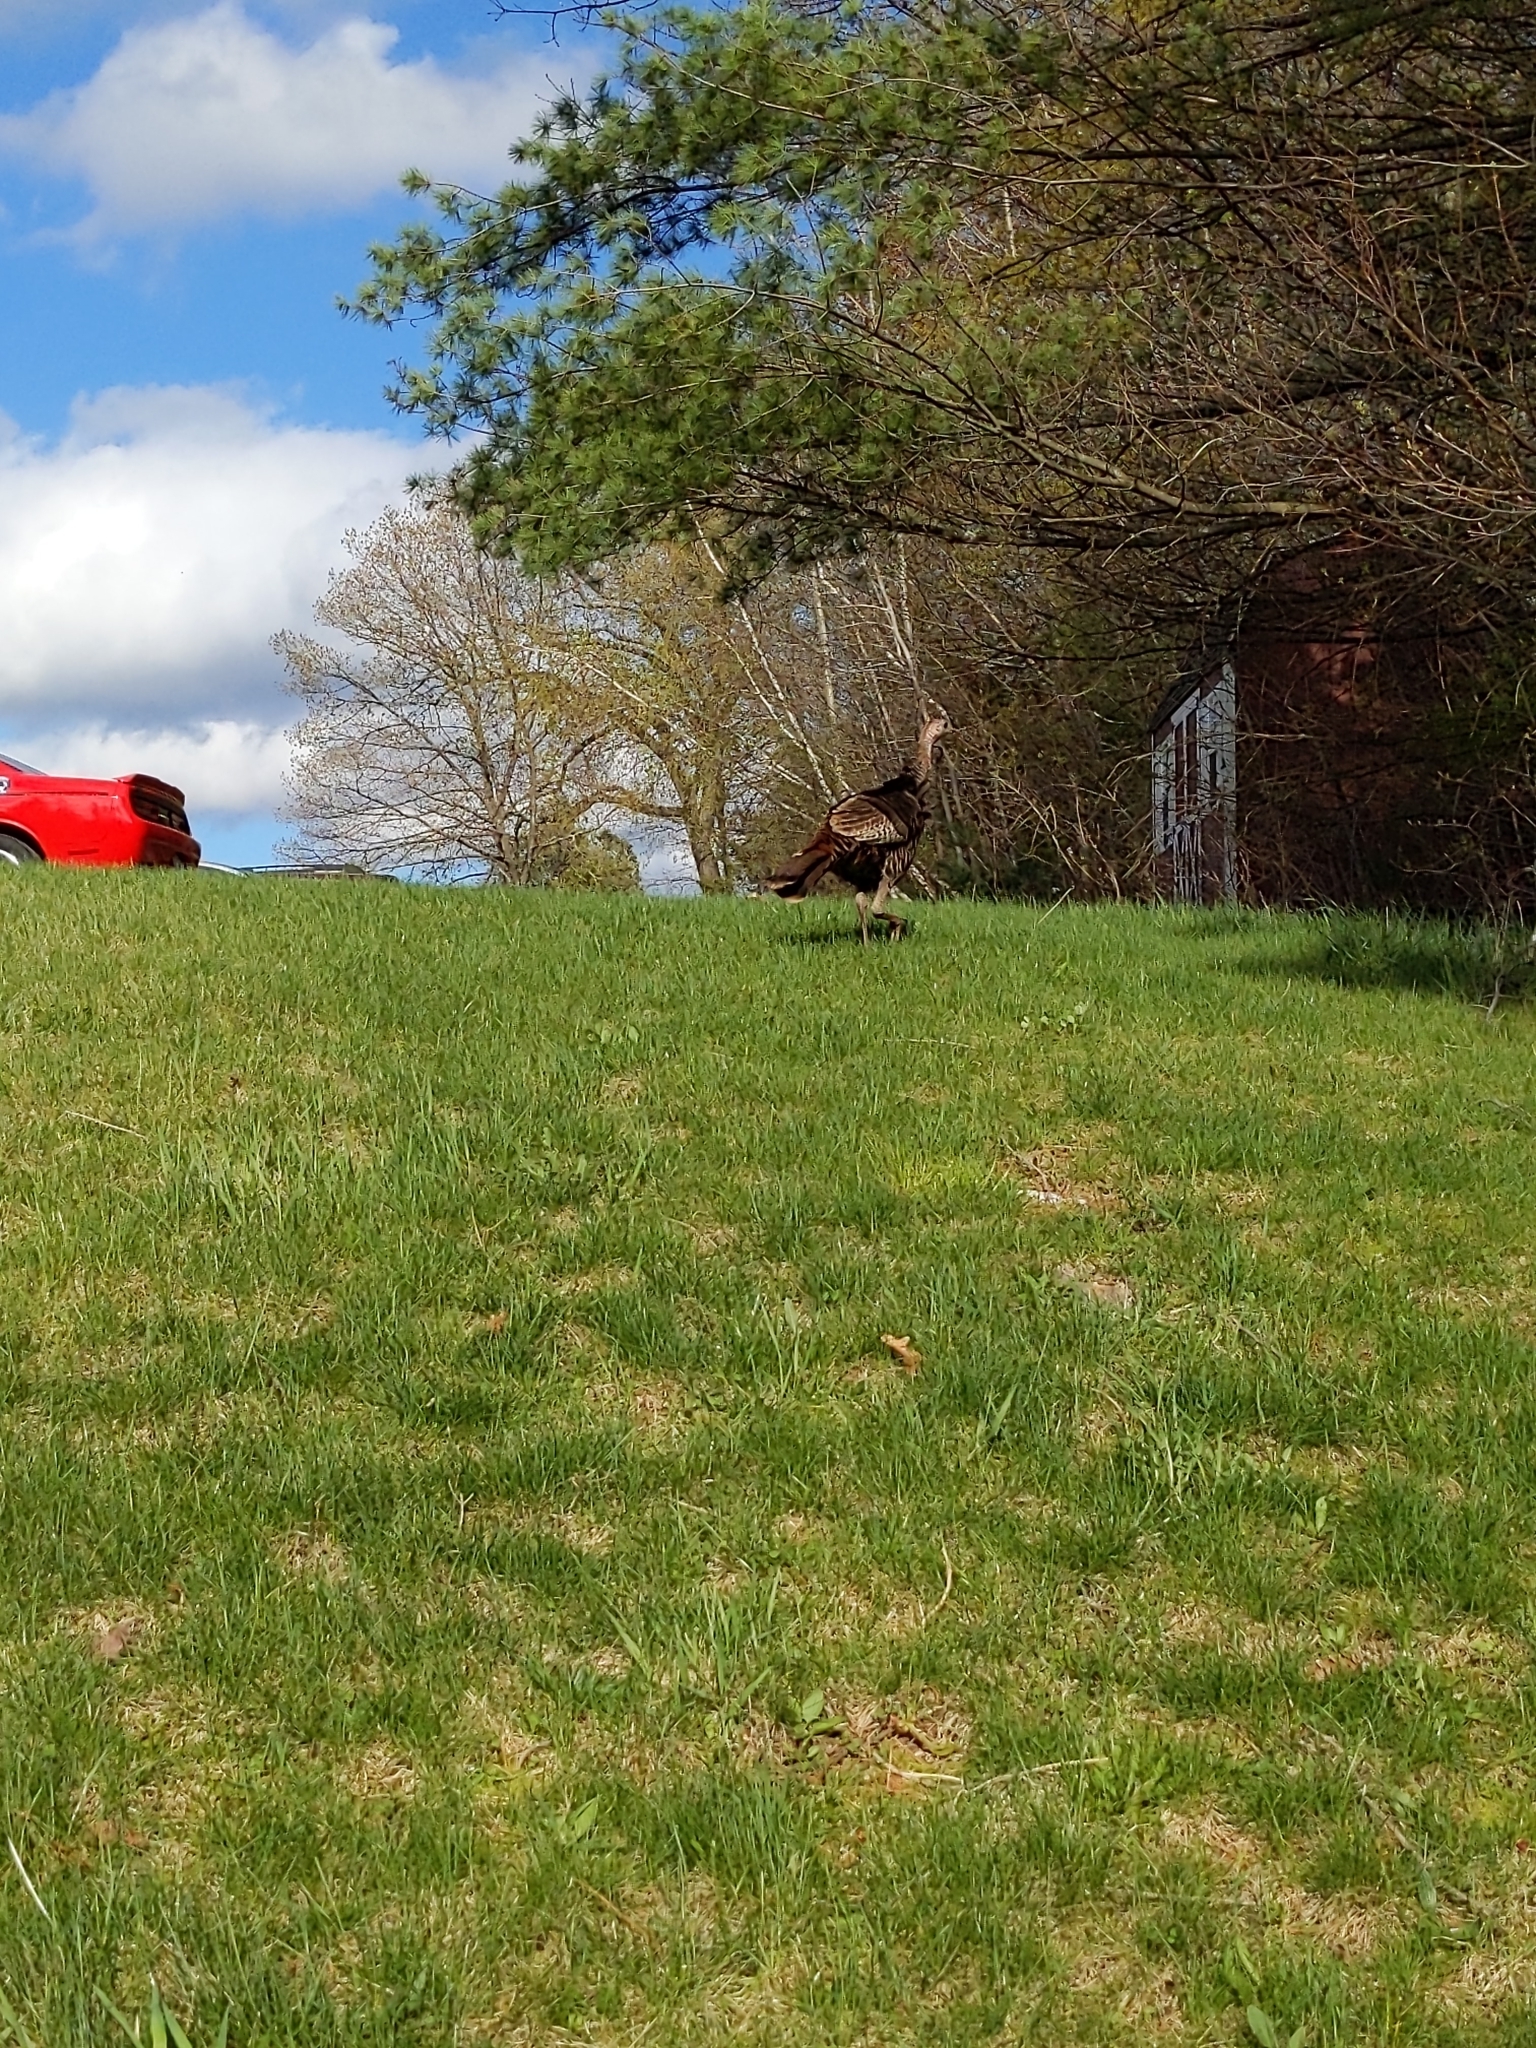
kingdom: Animalia
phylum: Chordata
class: Aves
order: Galliformes
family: Phasianidae
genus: Meleagris
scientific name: Meleagris gallopavo
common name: Wild turkey
